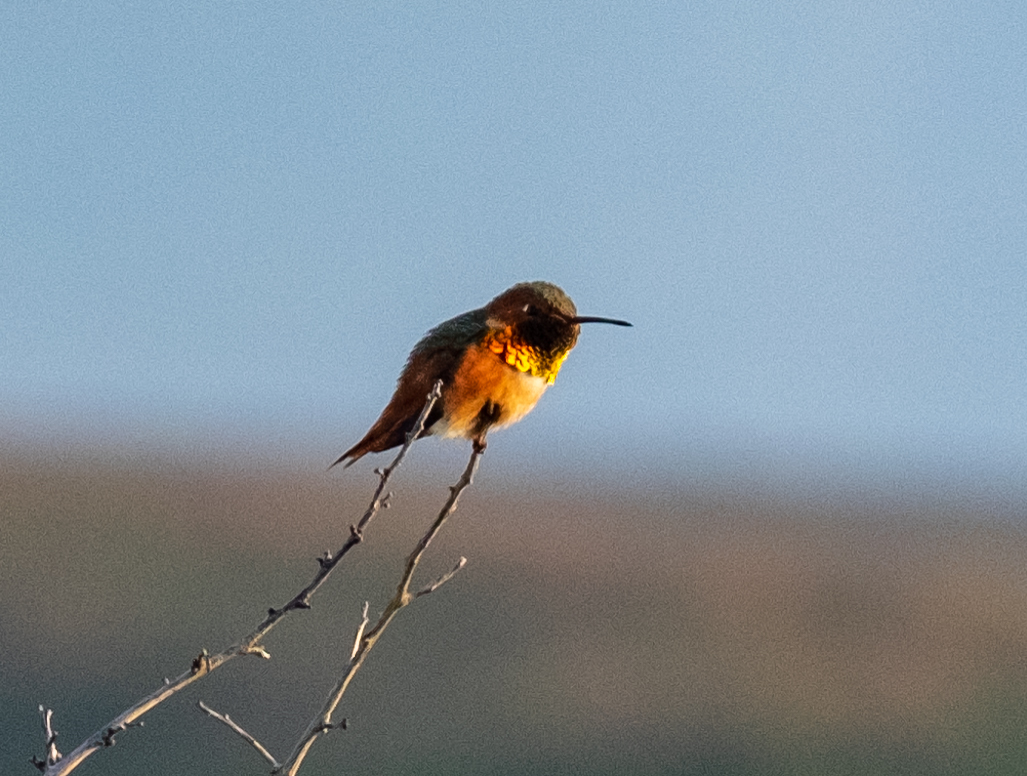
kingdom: Animalia
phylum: Chordata
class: Aves
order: Apodiformes
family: Trochilidae
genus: Selasphorus
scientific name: Selasphorus sasin
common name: Allen's hummingbird
